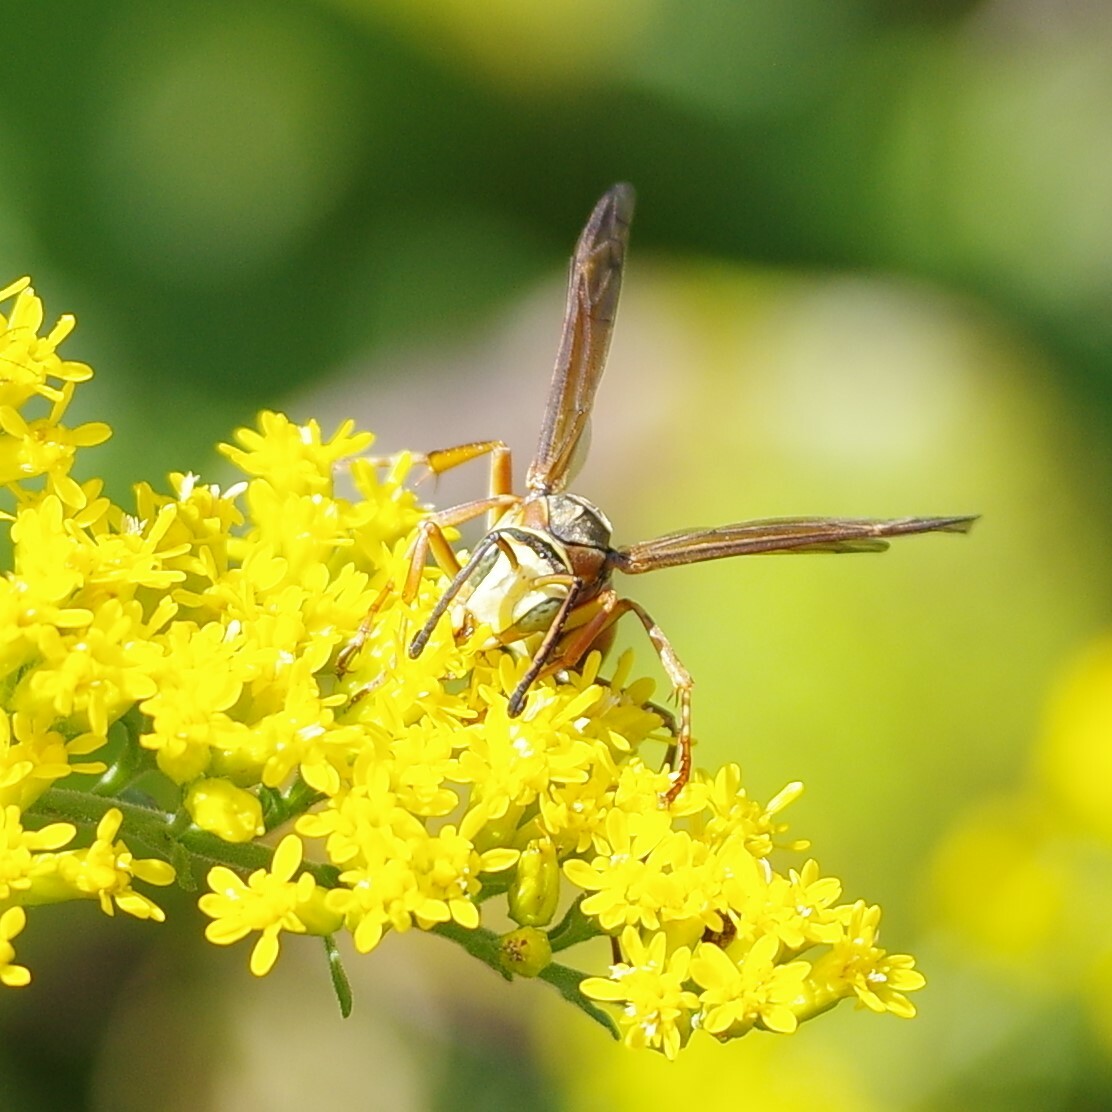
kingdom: Animalia
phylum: Arthropoda
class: Insecta
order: Hymenoptera
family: Eumenidae
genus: Polistes
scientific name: Polistes fuscatus
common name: Dark paper wasp
